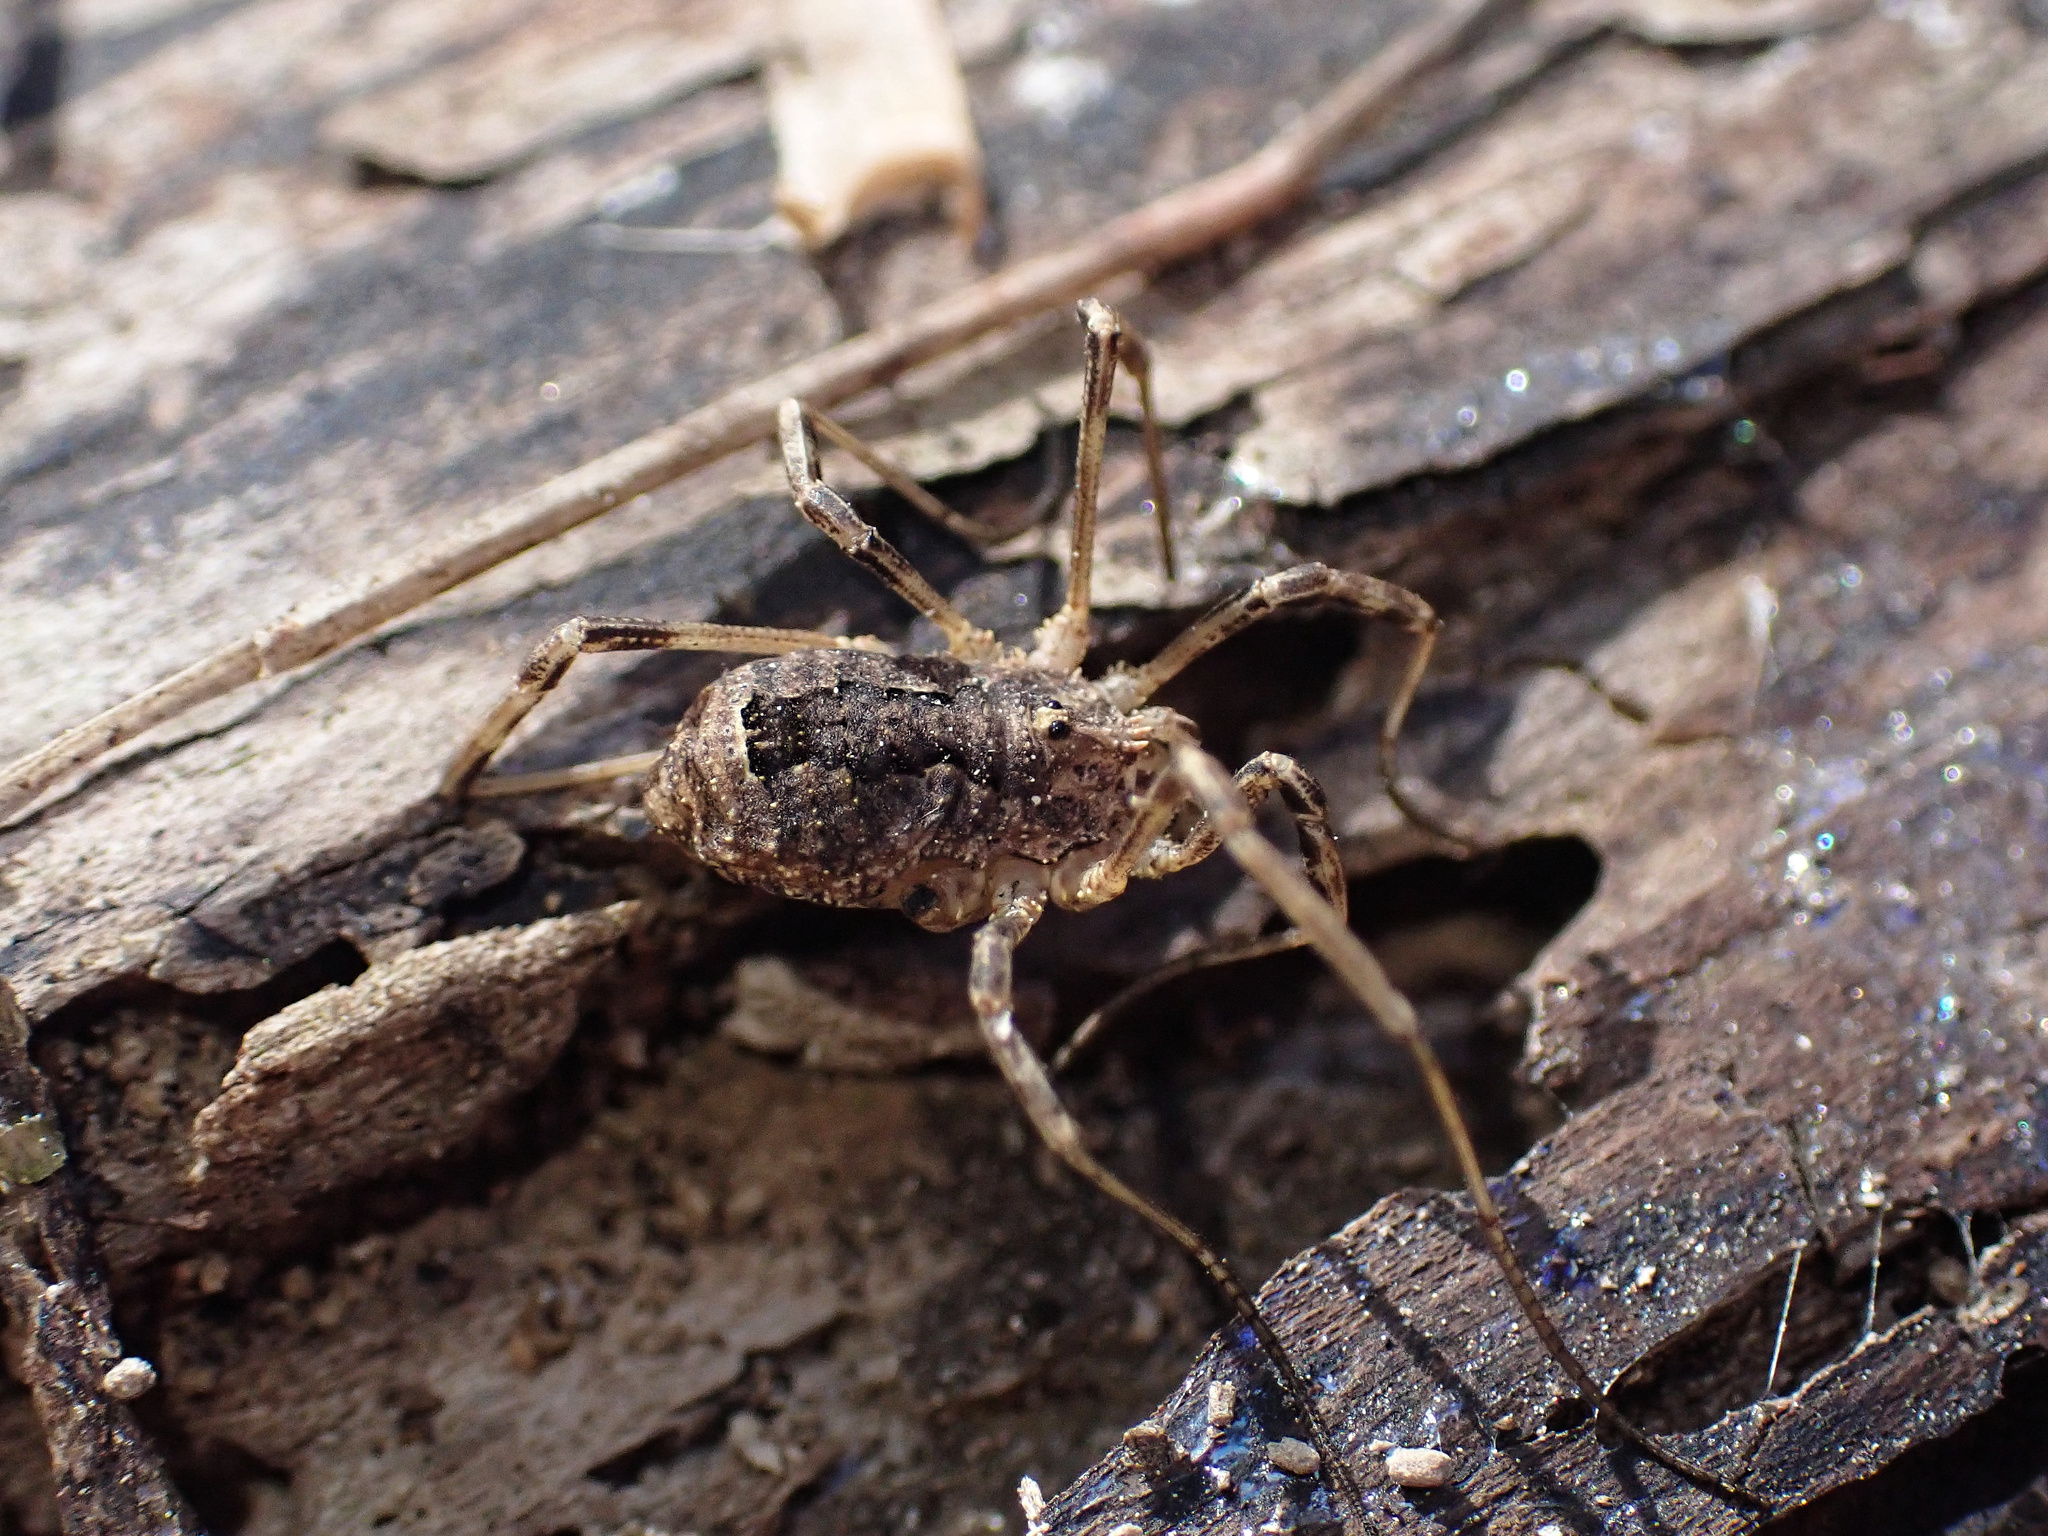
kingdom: Animalia
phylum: Arthropoda
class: Arachnida
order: Opiliones
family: Phalangiidae
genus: Odiellus
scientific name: Odiellus spinosus
